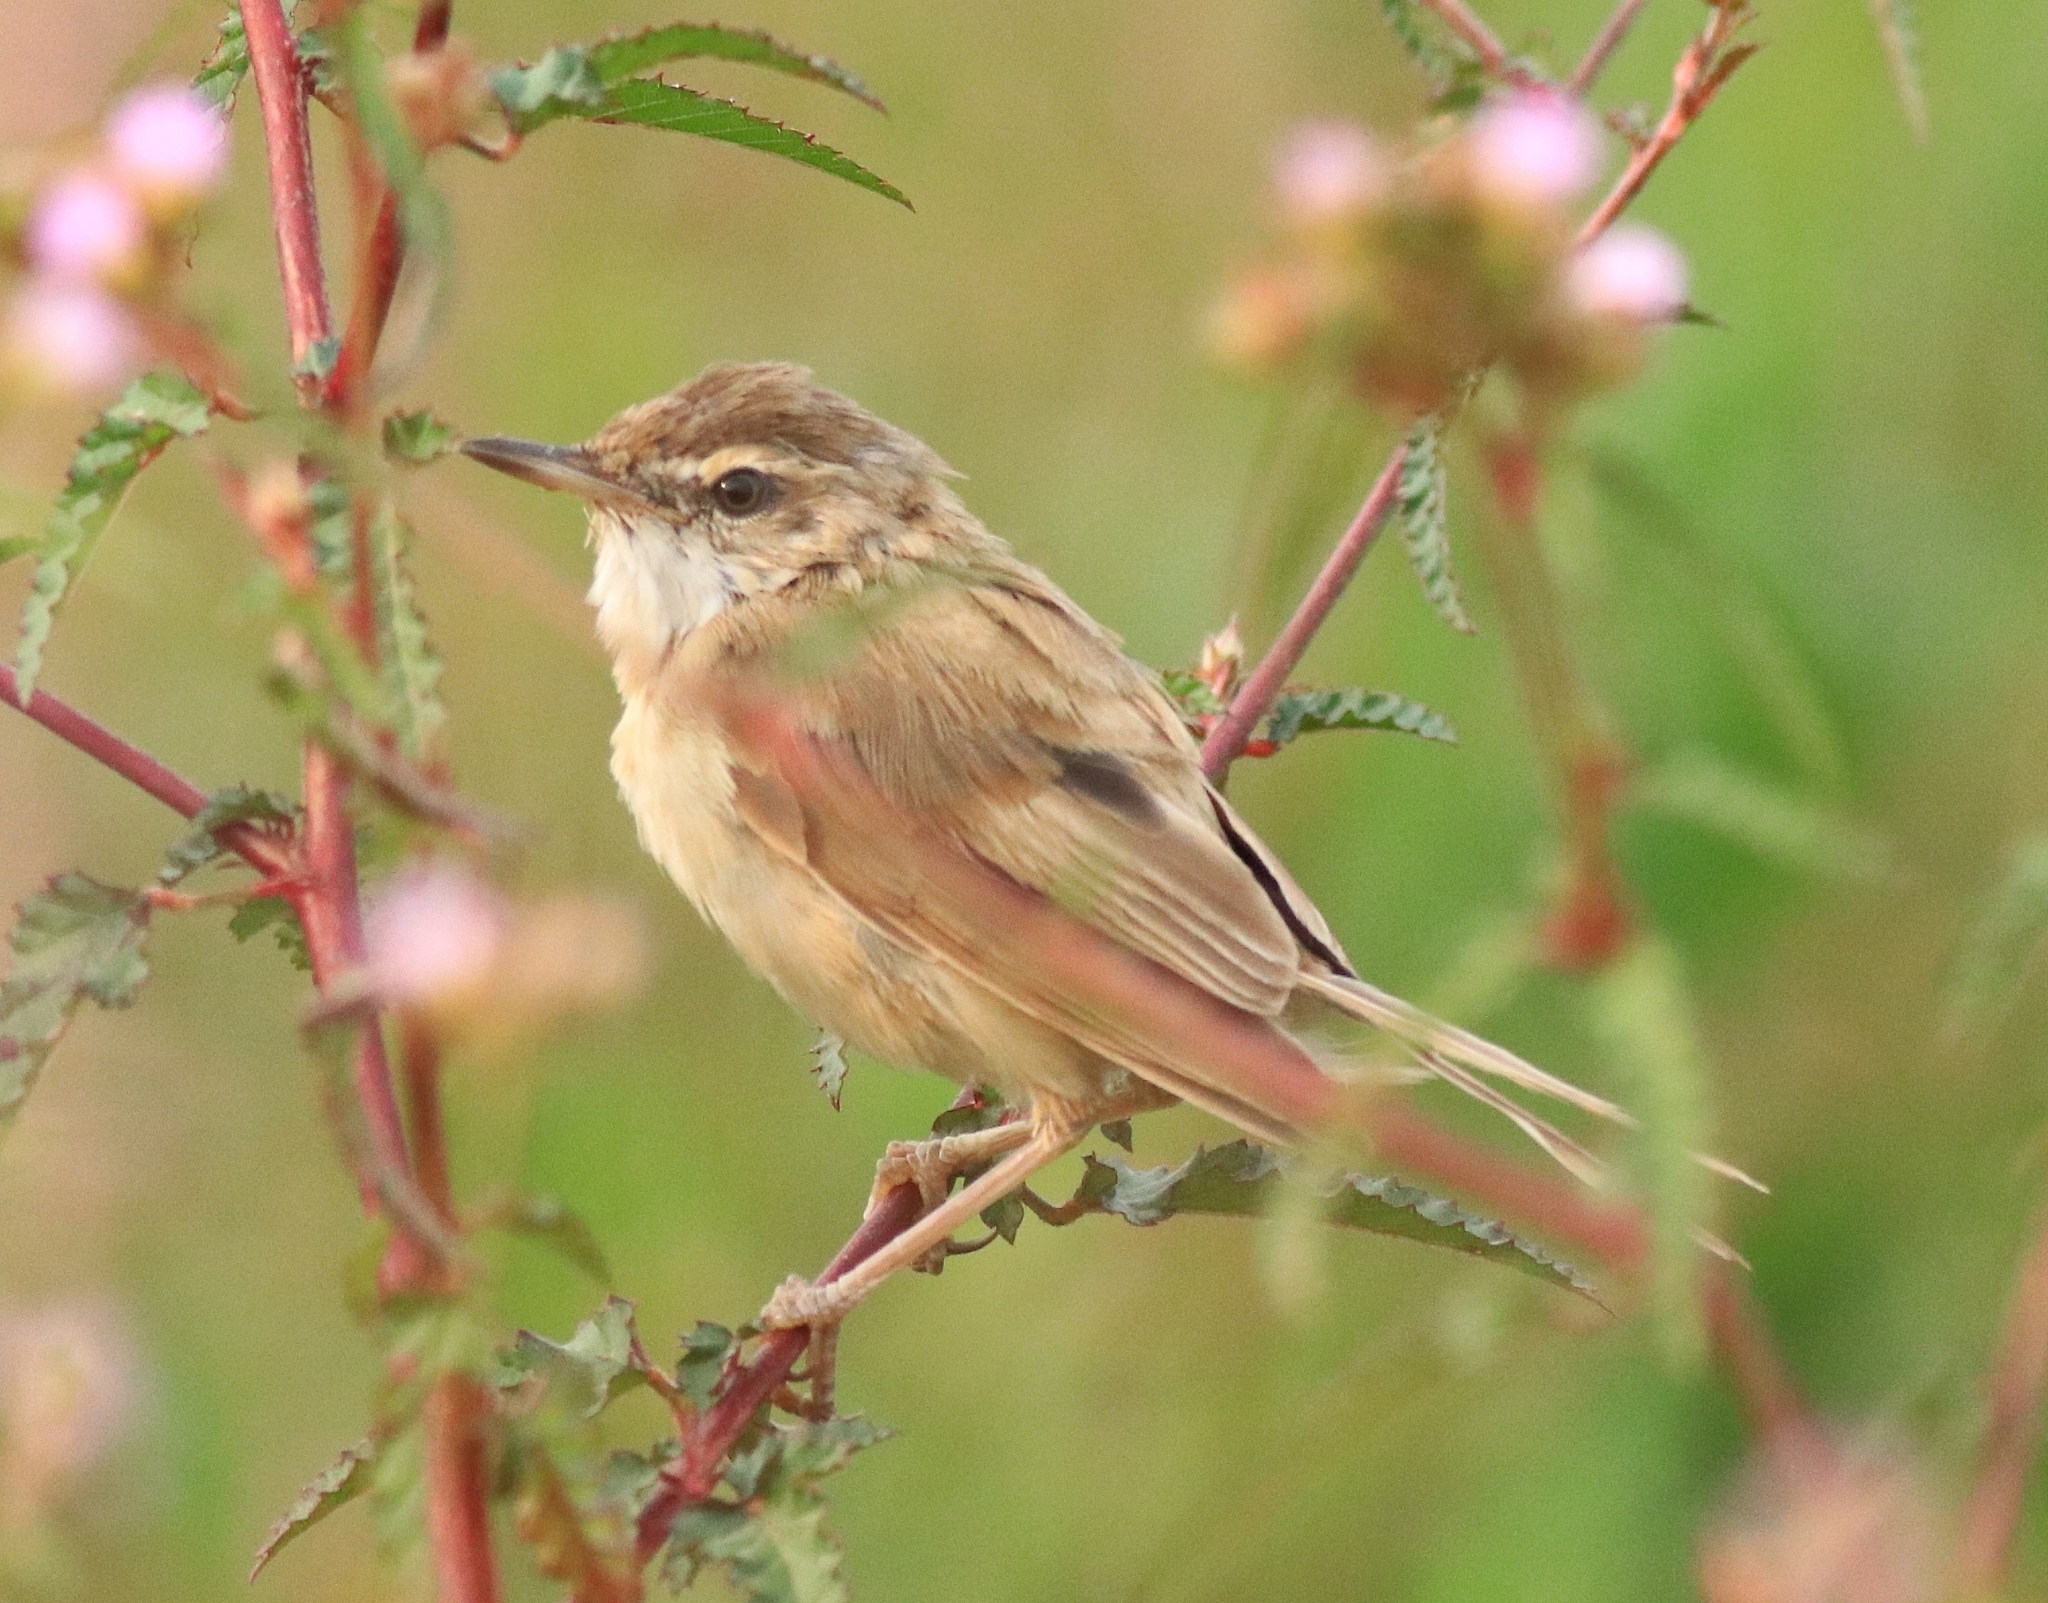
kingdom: Animalia
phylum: Chordata
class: Aves
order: Passeriformes
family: Acrocephalidae
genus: Acrocephalus
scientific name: Acrocephalus agricola
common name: Paddyfield warbler
